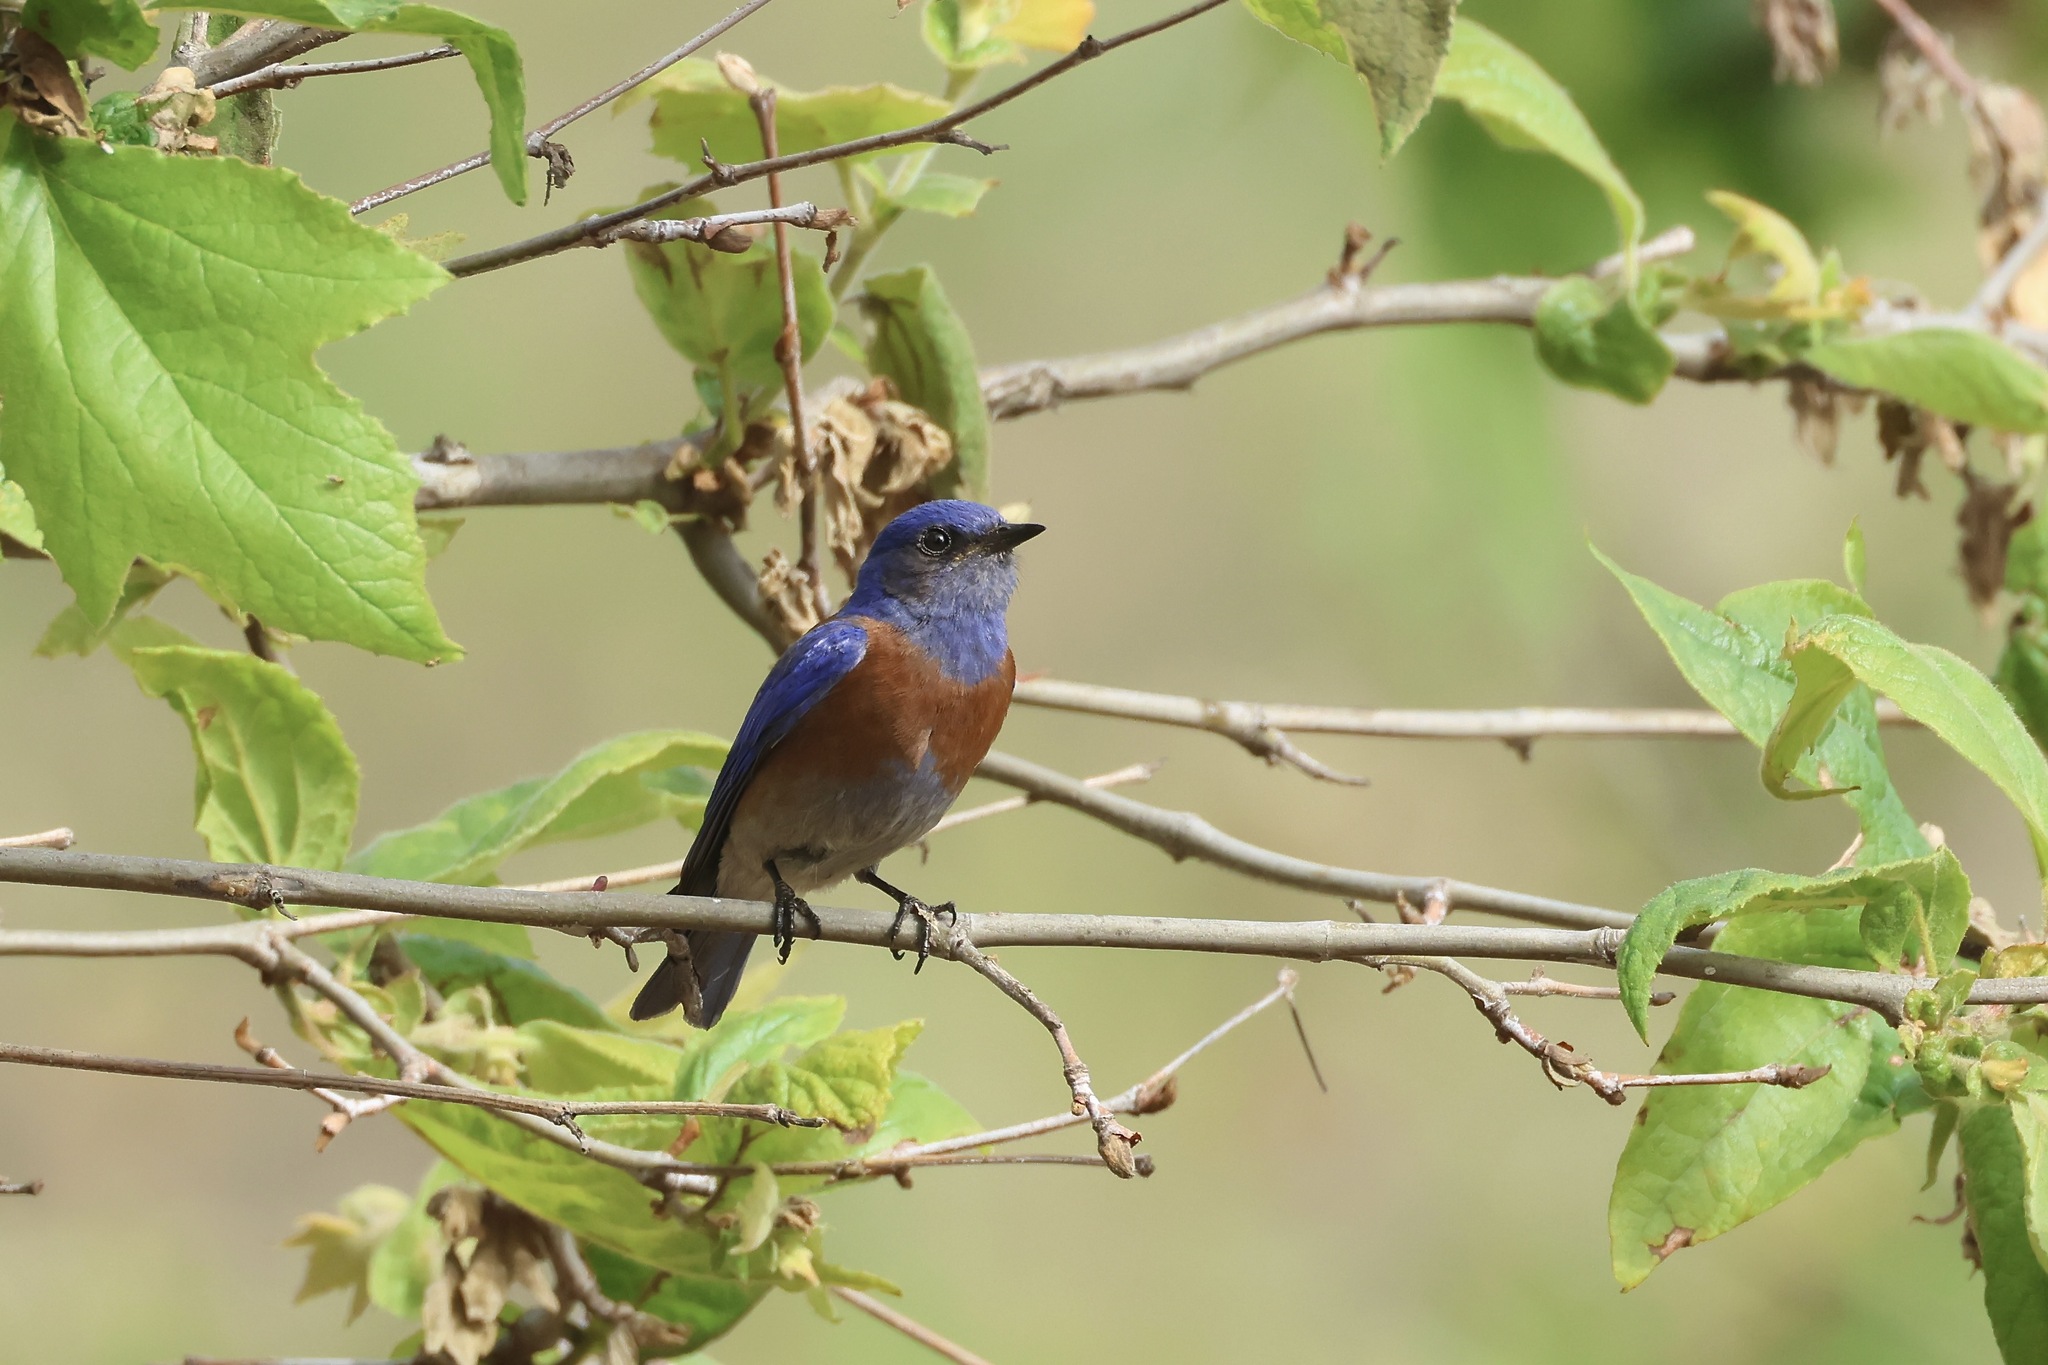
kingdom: Animalia
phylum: Chordata
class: Aves
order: Passeriformes
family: Turdidae
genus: Sialia
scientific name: Sialia mexicana
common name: Western bluebird
